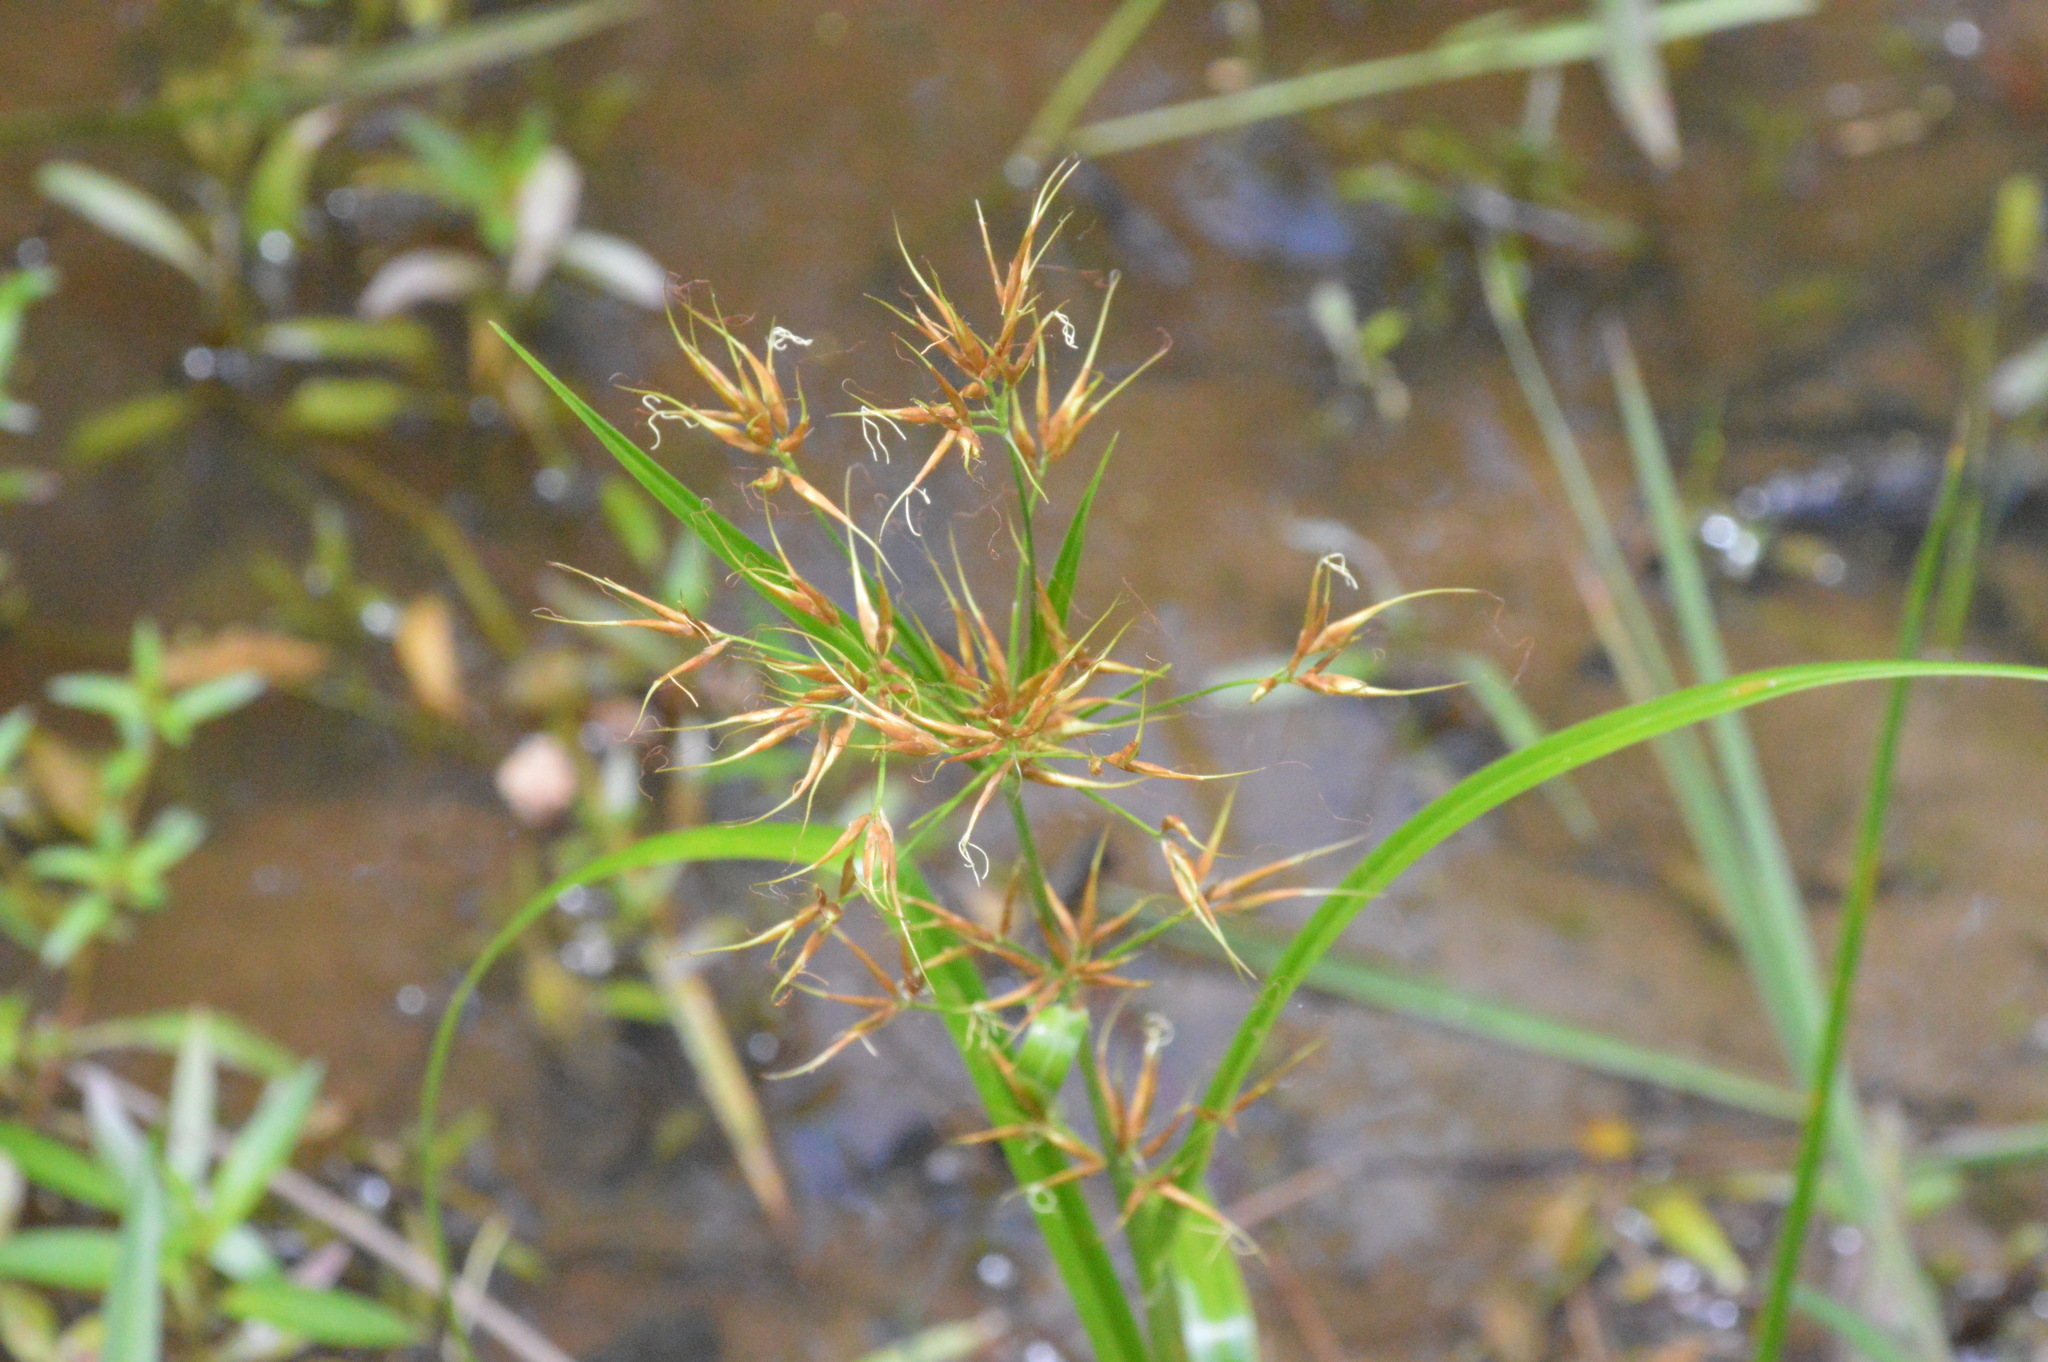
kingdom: Plantae
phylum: Tracheophyta
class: Liliopsida
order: Poales
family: Cyperaceae
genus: Rhynchospora
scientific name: Rhynchospora corniculata
